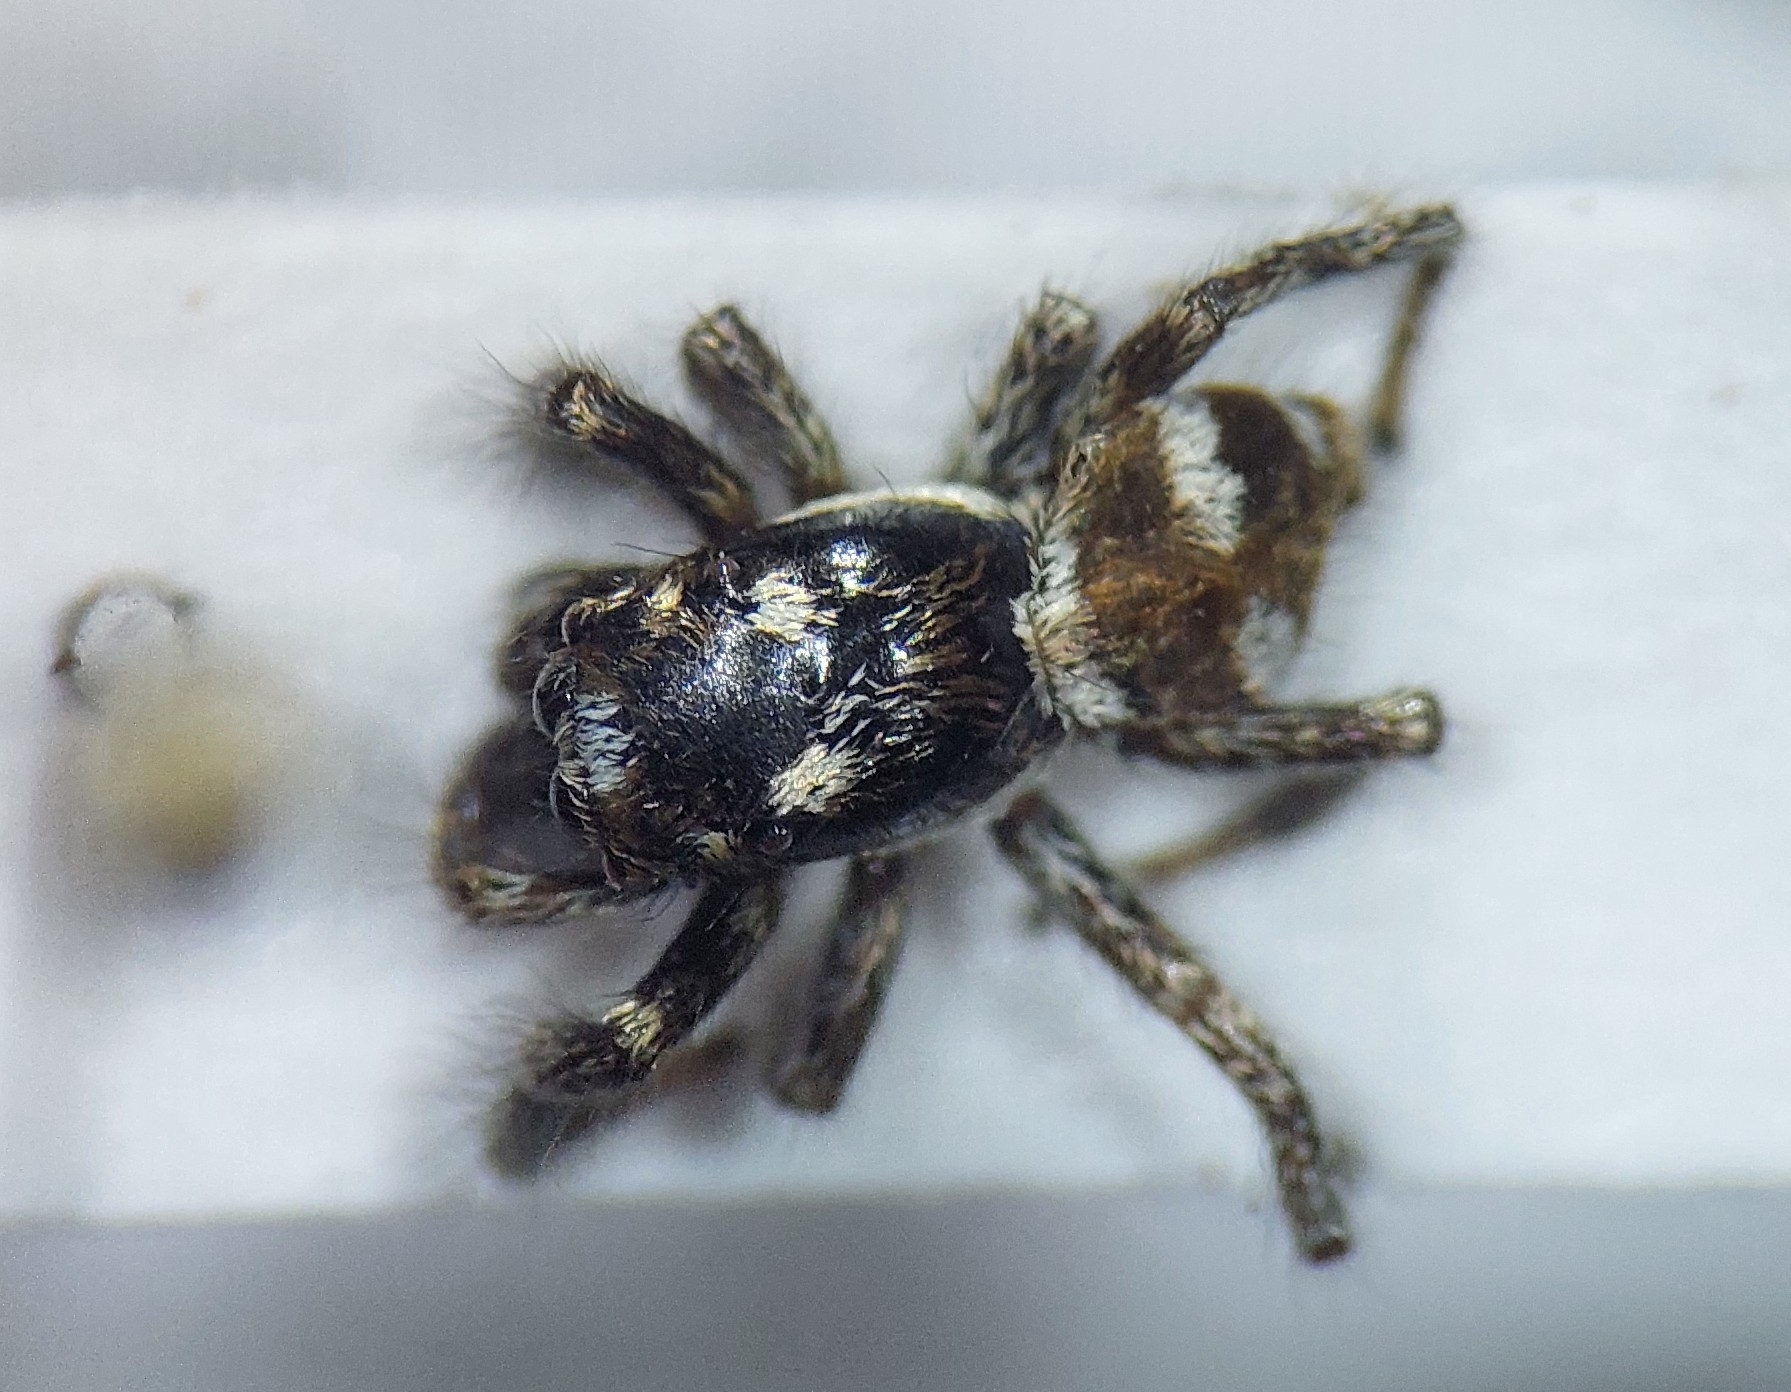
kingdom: Animalia
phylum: Arthropoda
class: Arachnida
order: Araneae
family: Salticidae
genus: Salticus
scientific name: Salticus scenicus
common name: Zebra jumper
